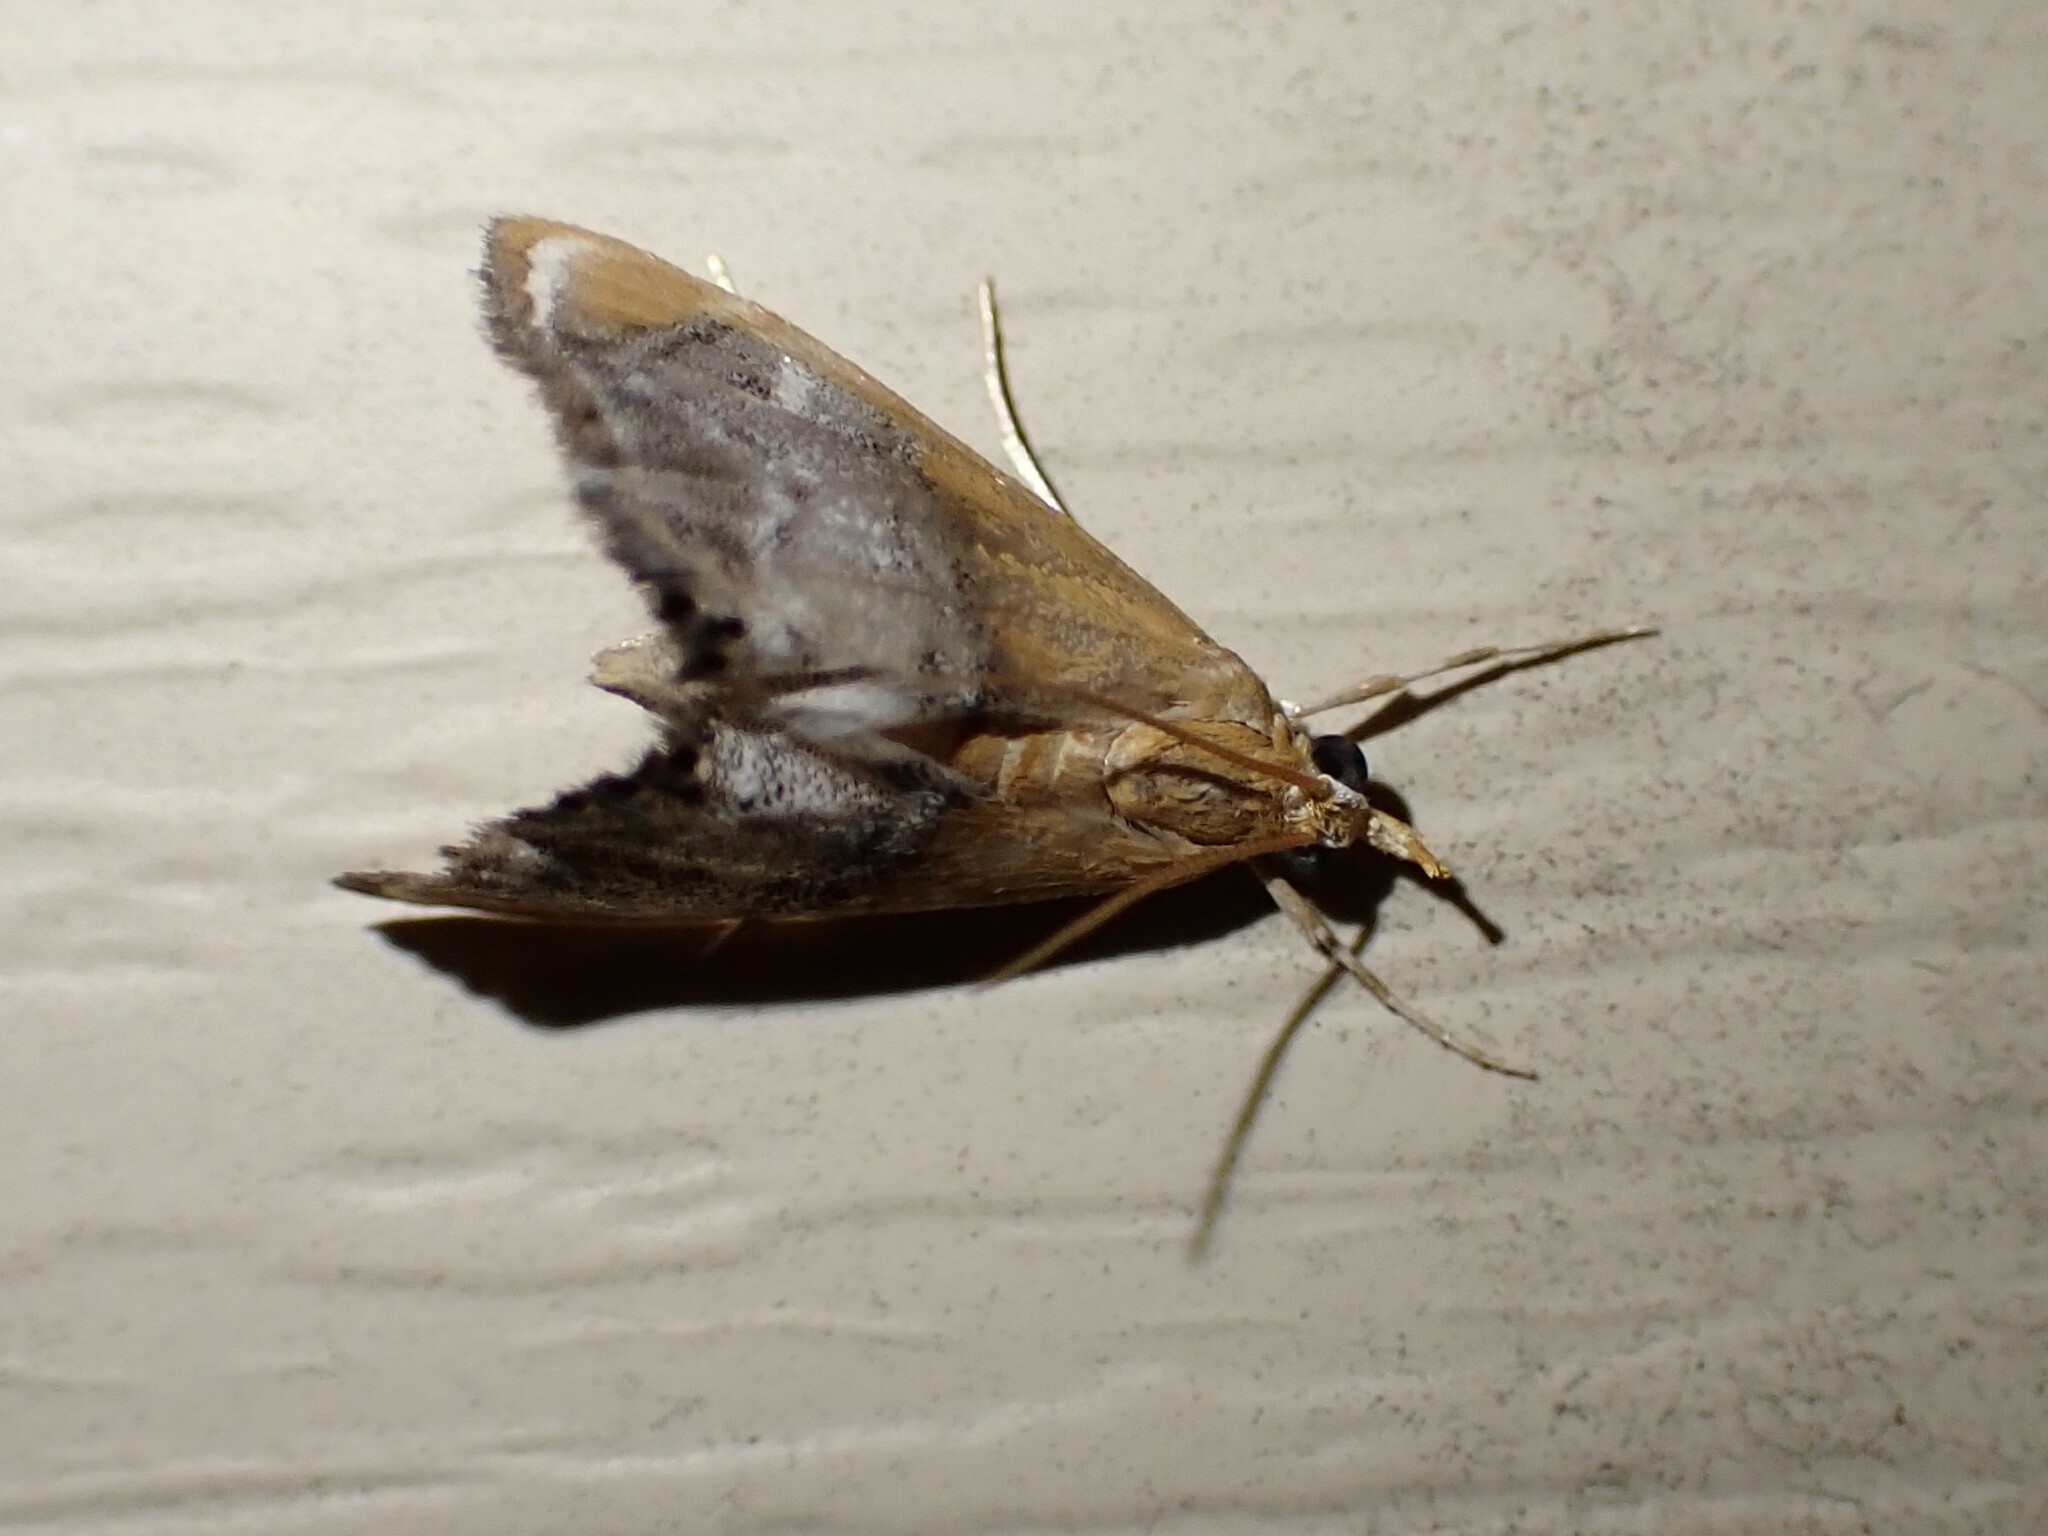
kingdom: Animalia
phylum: Arthropoda
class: Insecta
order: Lepidoptera
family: Crambidae
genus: Chalcoela
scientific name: Chalcoela iphitalis
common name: Sooty-winged chalcoela moth
